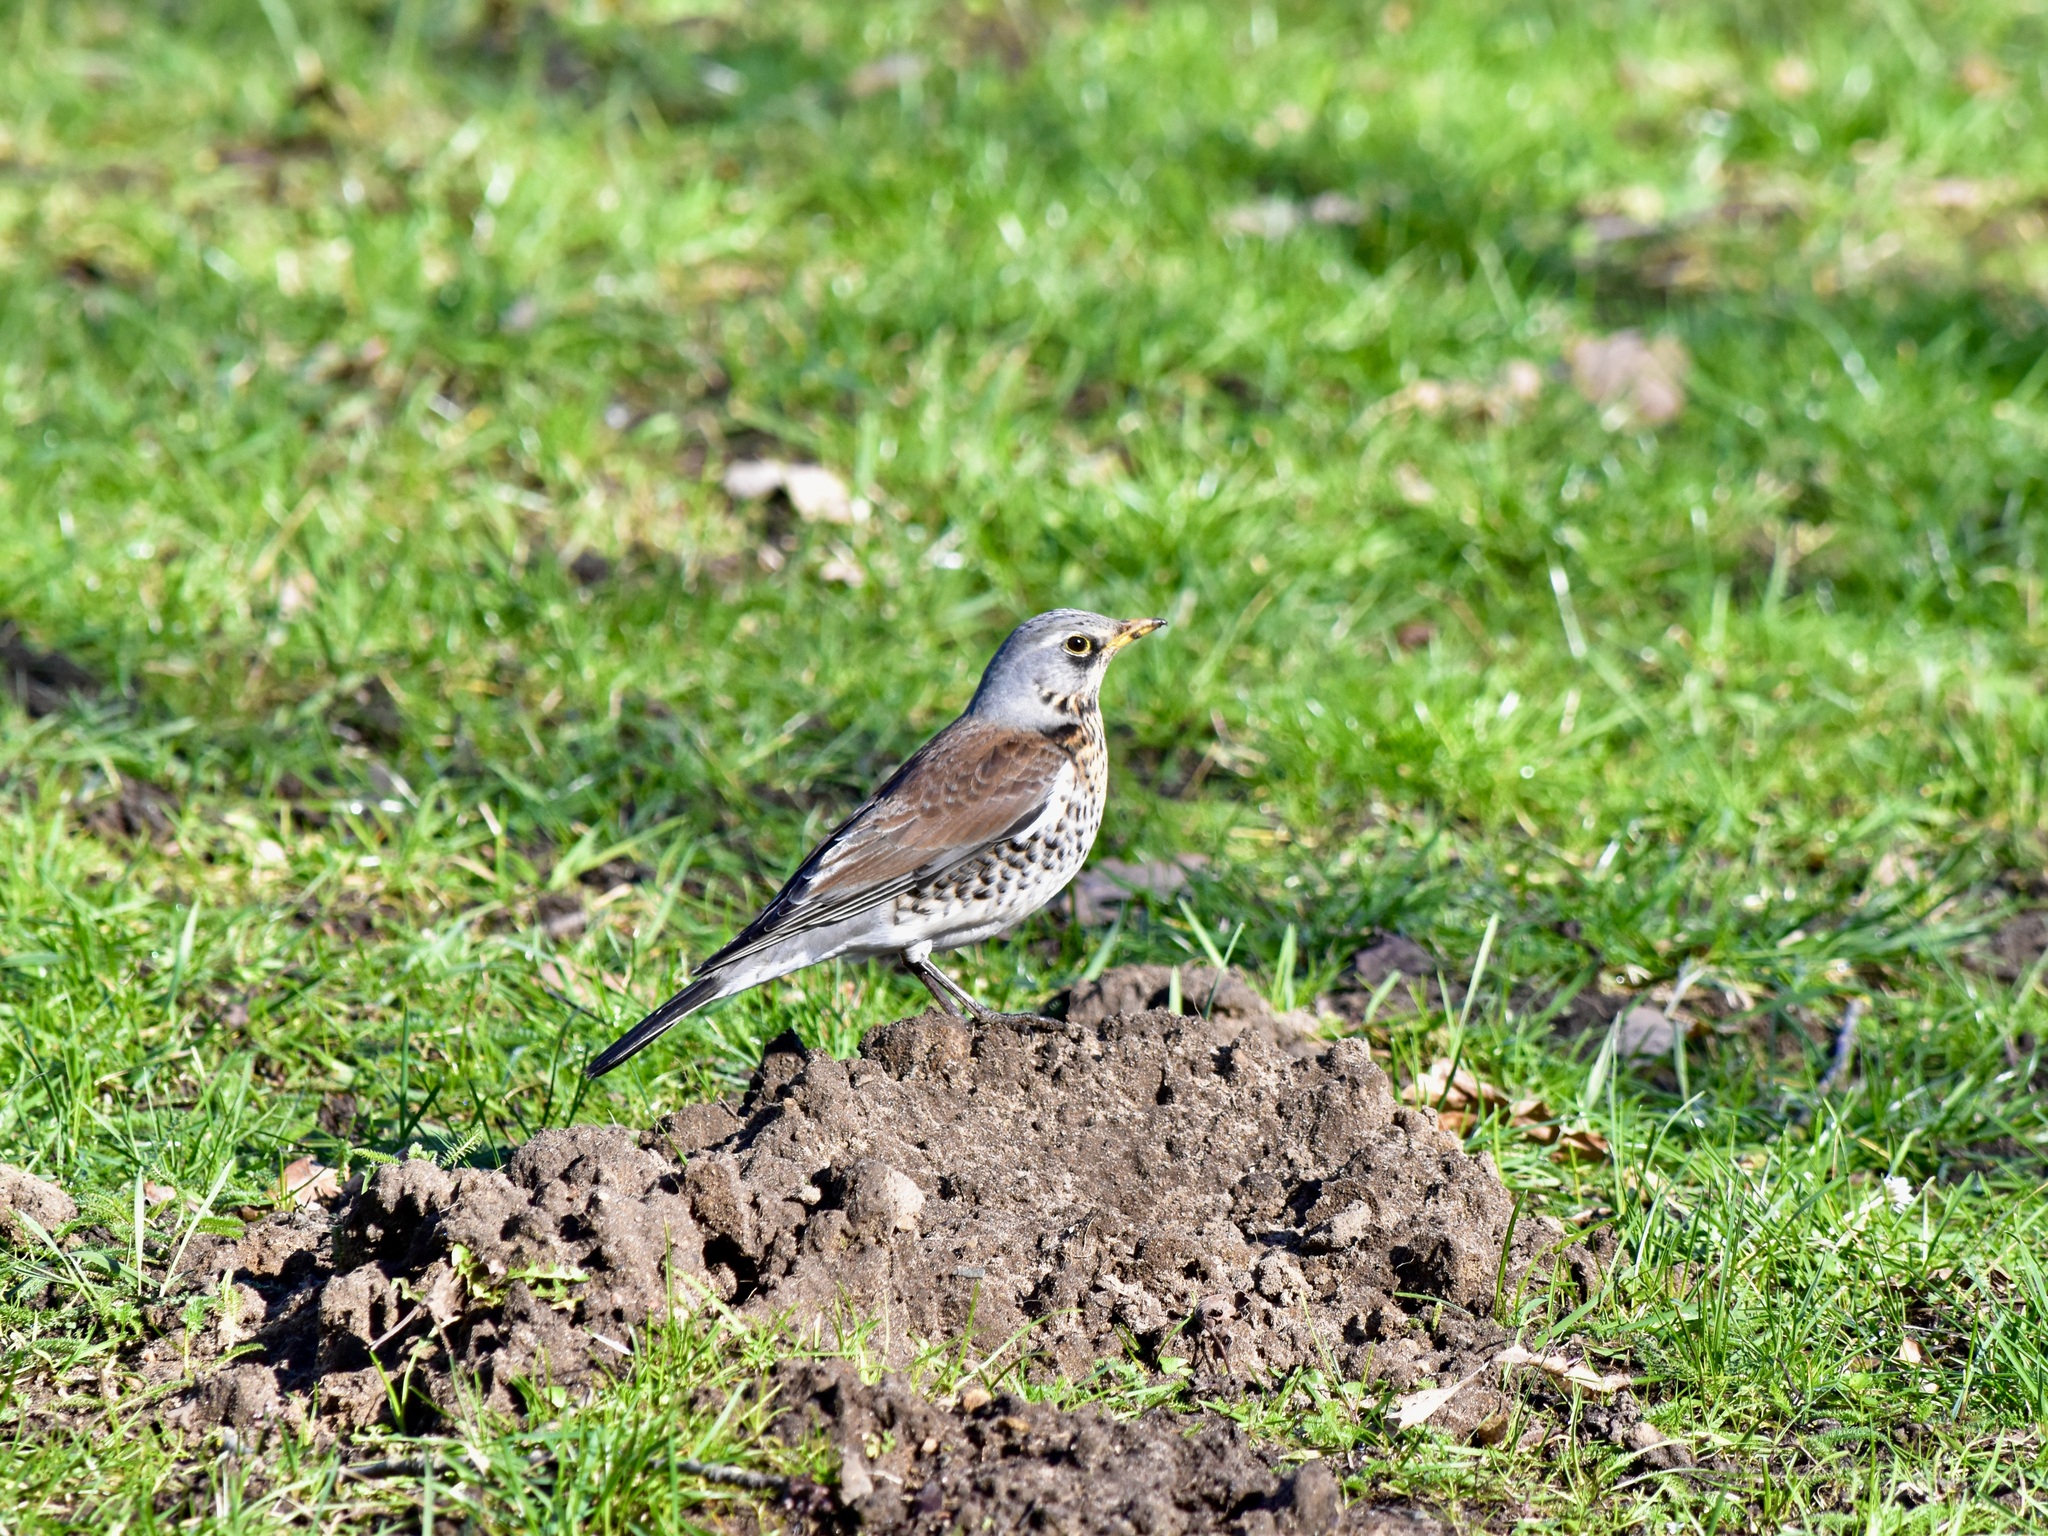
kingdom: Animalia
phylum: Chordata
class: Aves
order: Passeriformes
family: Turdidae
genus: Turdus
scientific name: Turdus pilaris
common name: Fieldfare
